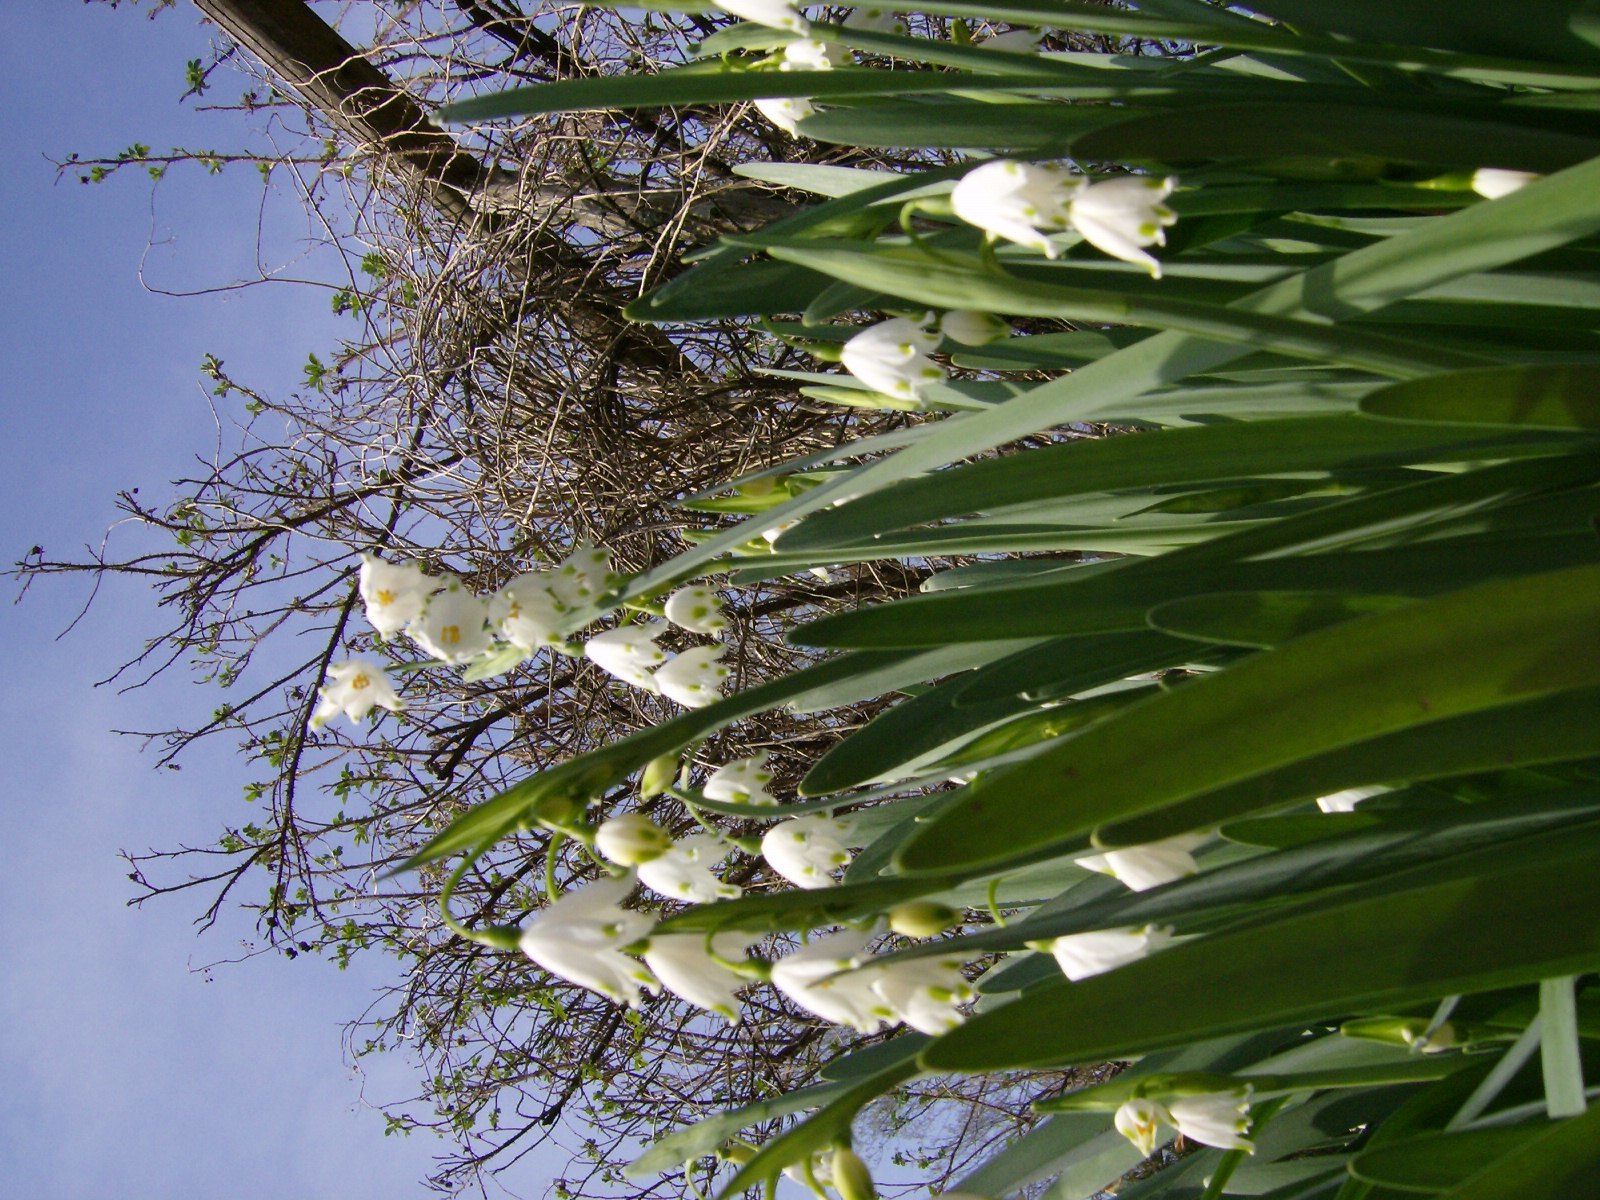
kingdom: Plantae
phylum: Tracheophyta
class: Liliopsida
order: Asparagales
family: Amaryllidaceae
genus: Leucojum
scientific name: Leucojum aestivum
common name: Summer snowflake
